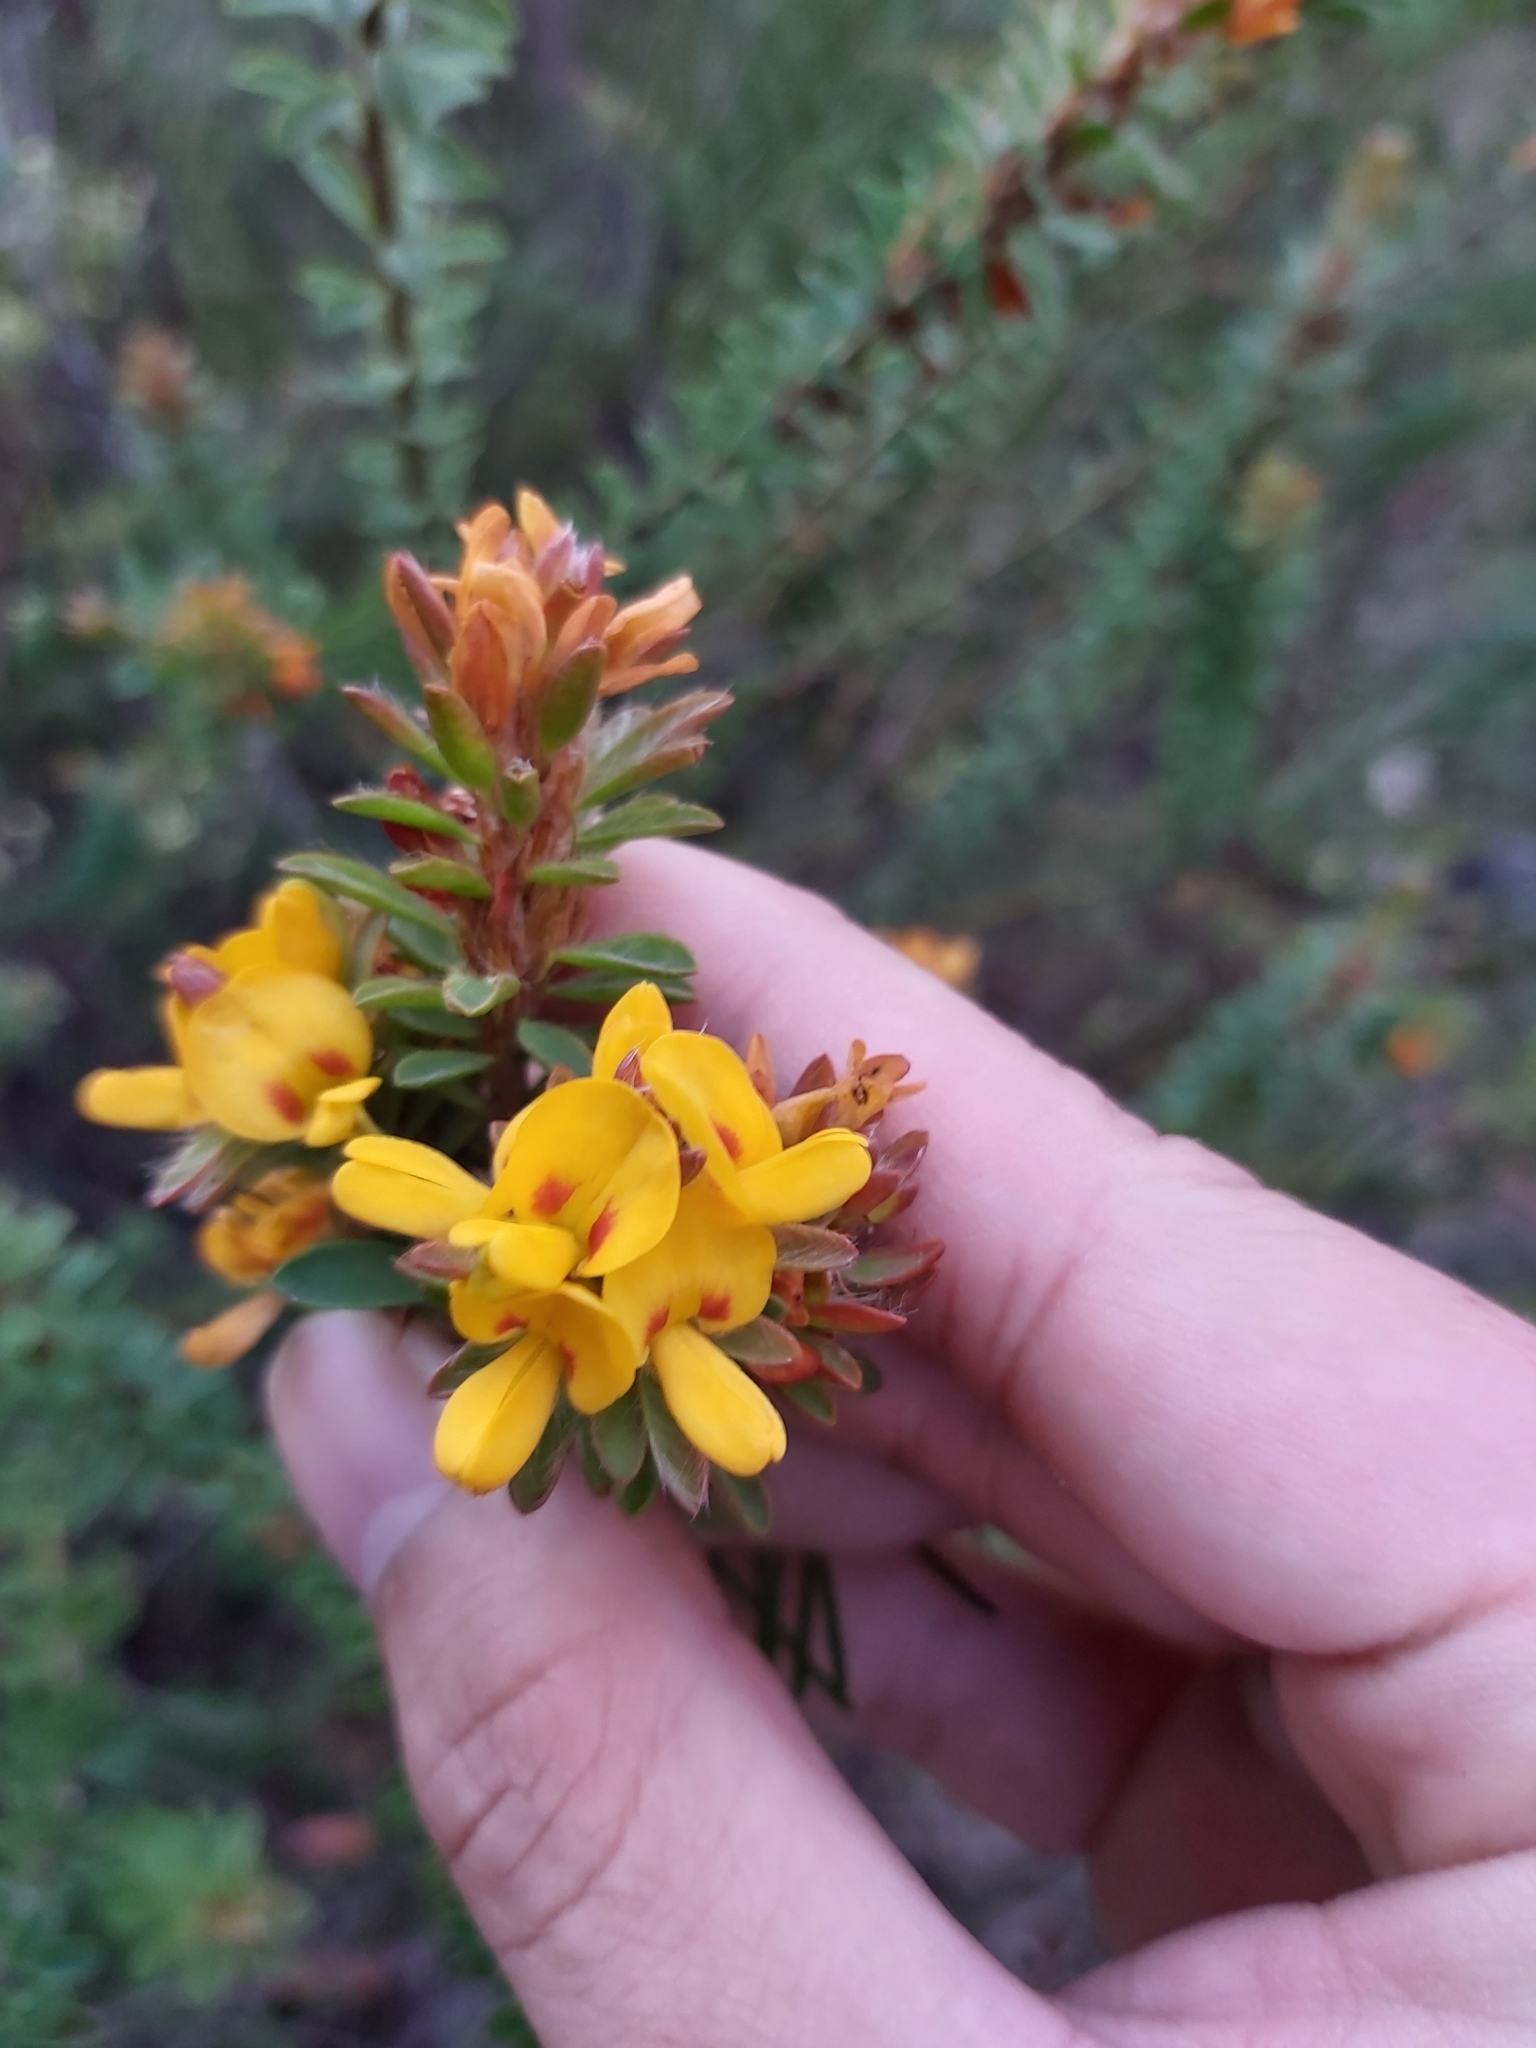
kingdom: Plantae
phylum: Tracheophyta
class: Magnoliopsida
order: Fabales
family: Fabaceae
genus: Pultenaea
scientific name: Pultenaea tuberculata
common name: Wreath bush-pea
